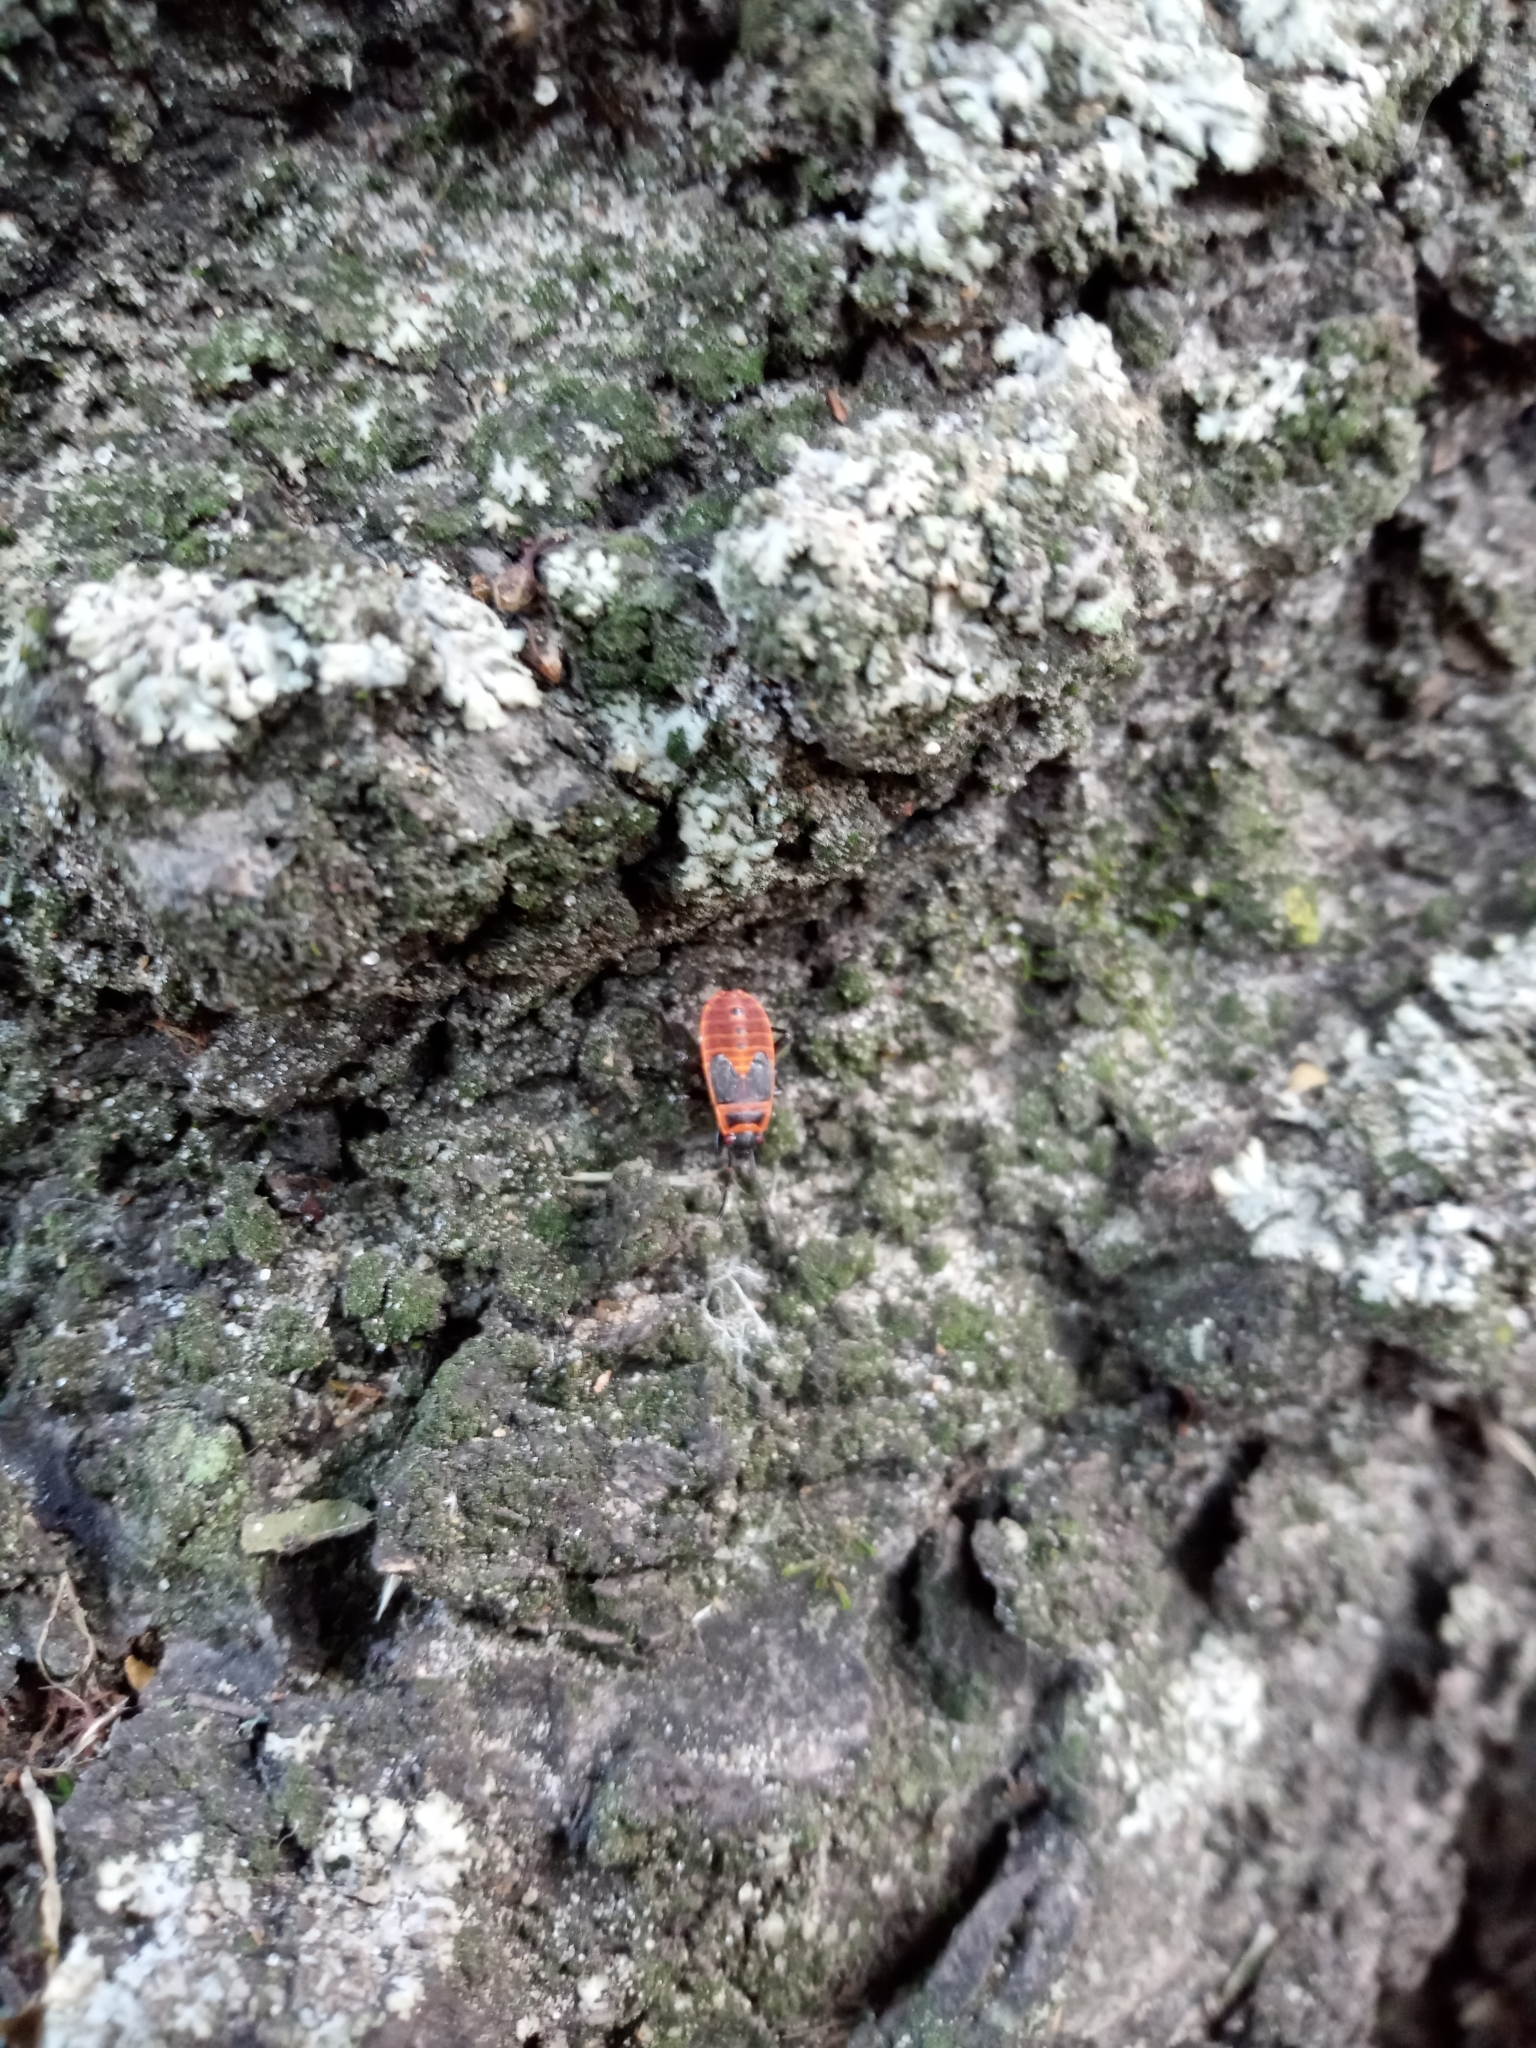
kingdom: Animalia
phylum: Arthropoda
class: Insecta
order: Hemiptera
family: Pyrrhocoridae
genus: Pyrrhocoris
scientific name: Pyrrhocoris apterus
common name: Firebug
